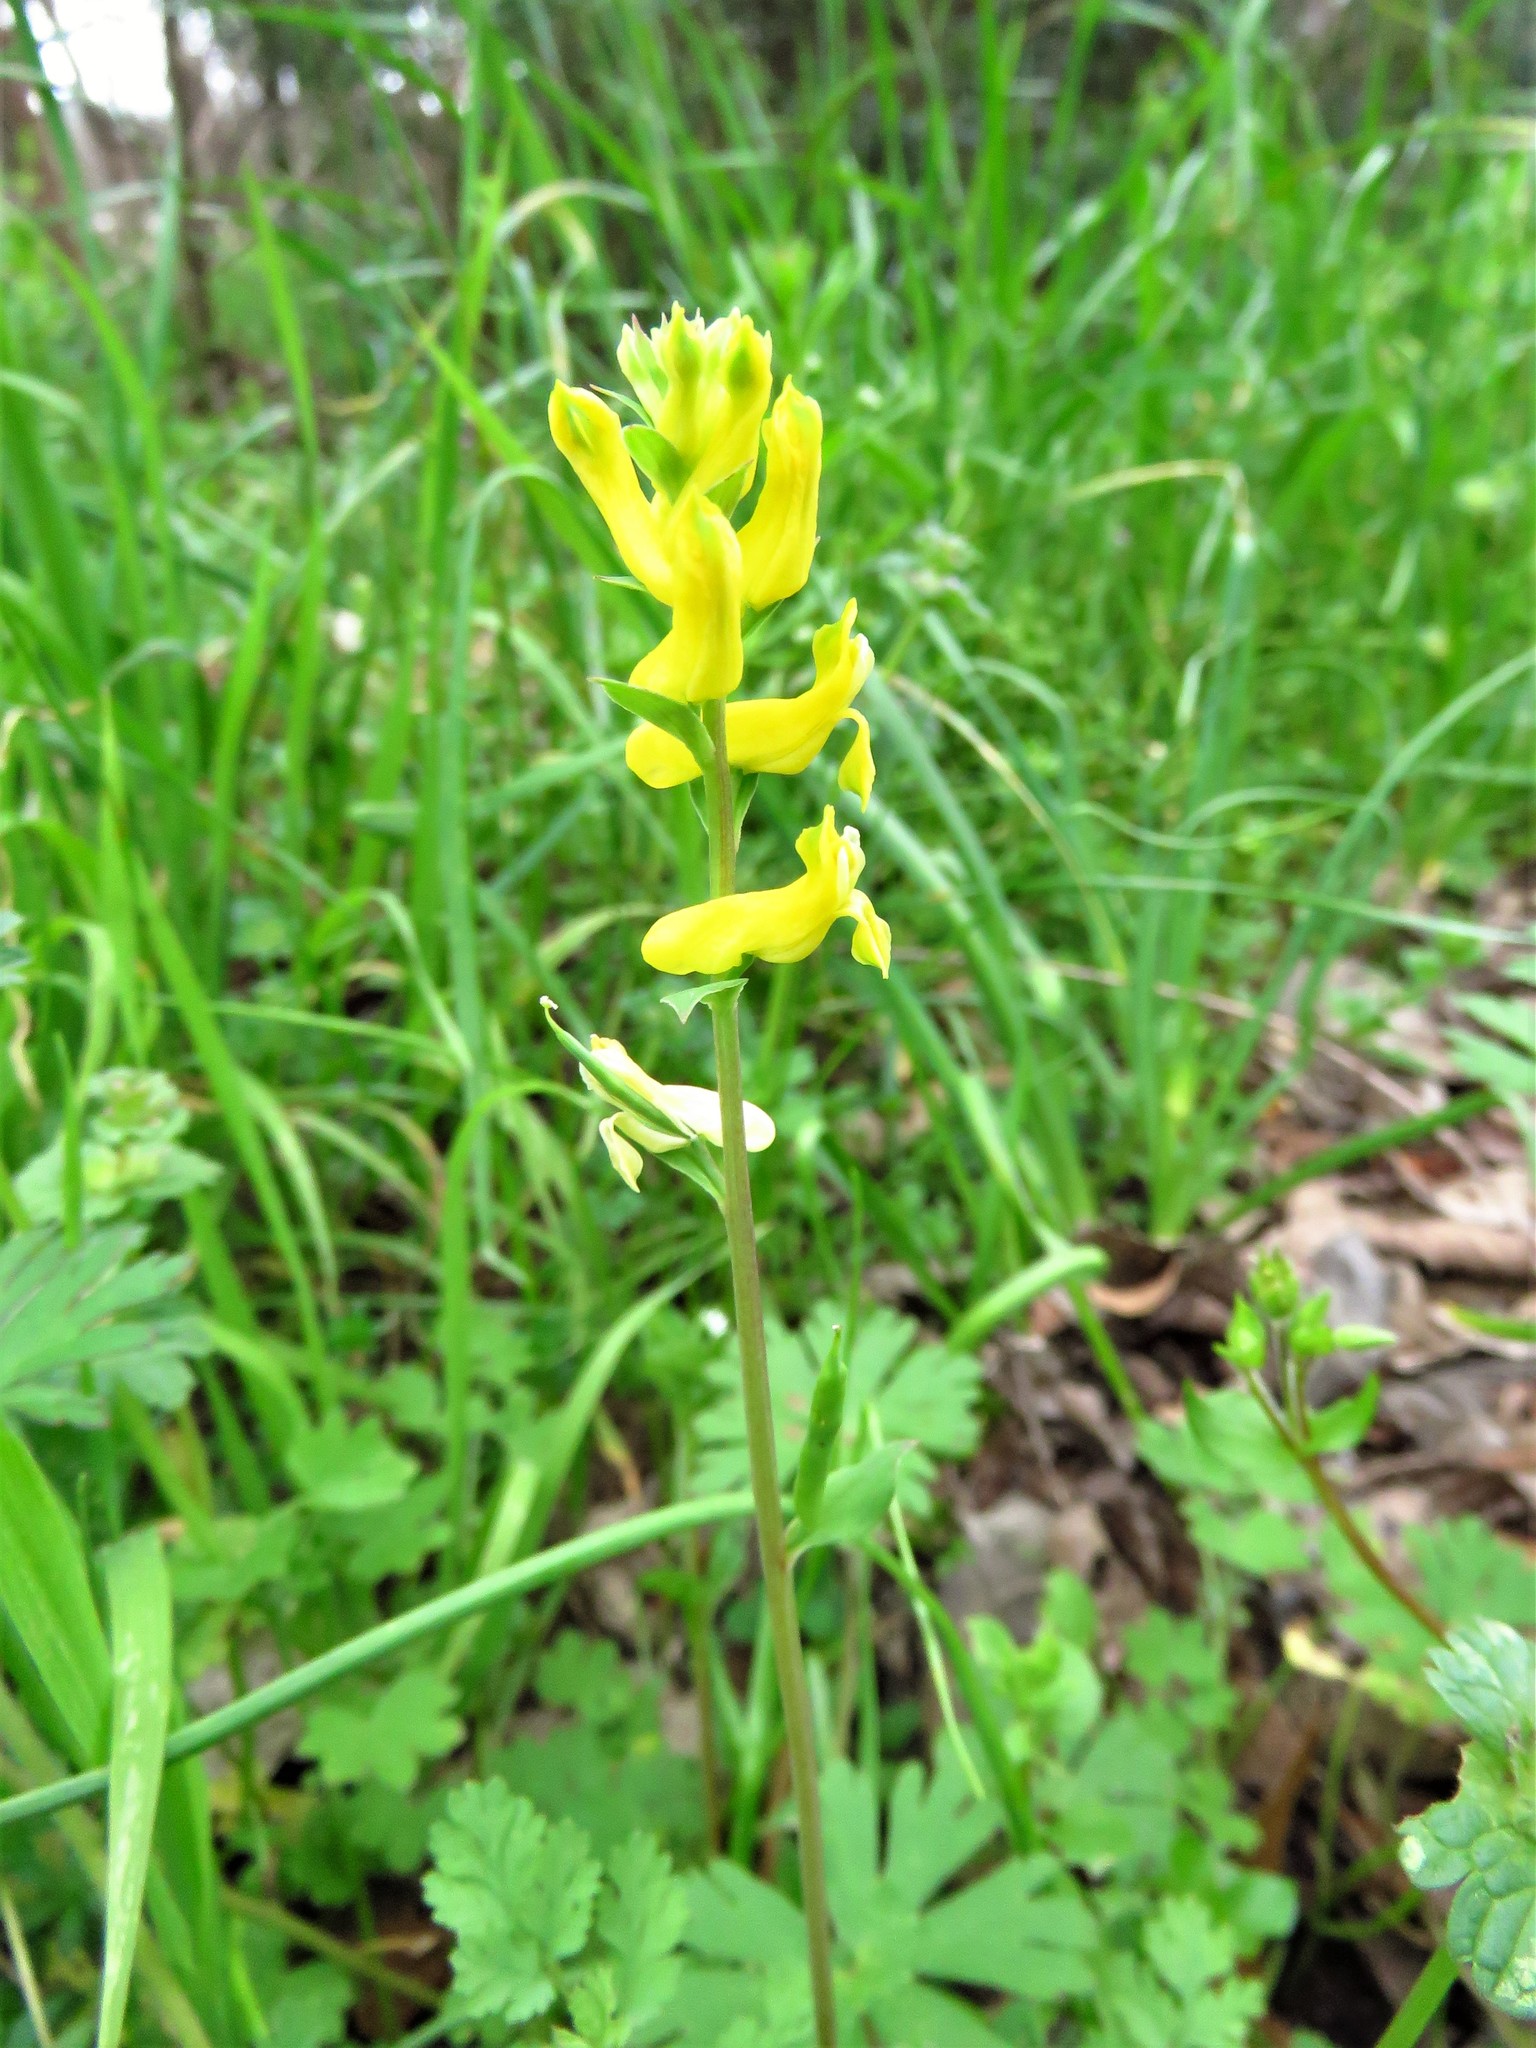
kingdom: Plantae
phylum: Tracheophyta
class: Magnoliopsida
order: Ranunculales
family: Papaveraceae
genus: Corydalis
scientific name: Corydalis aurea
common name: Golden corydalis
